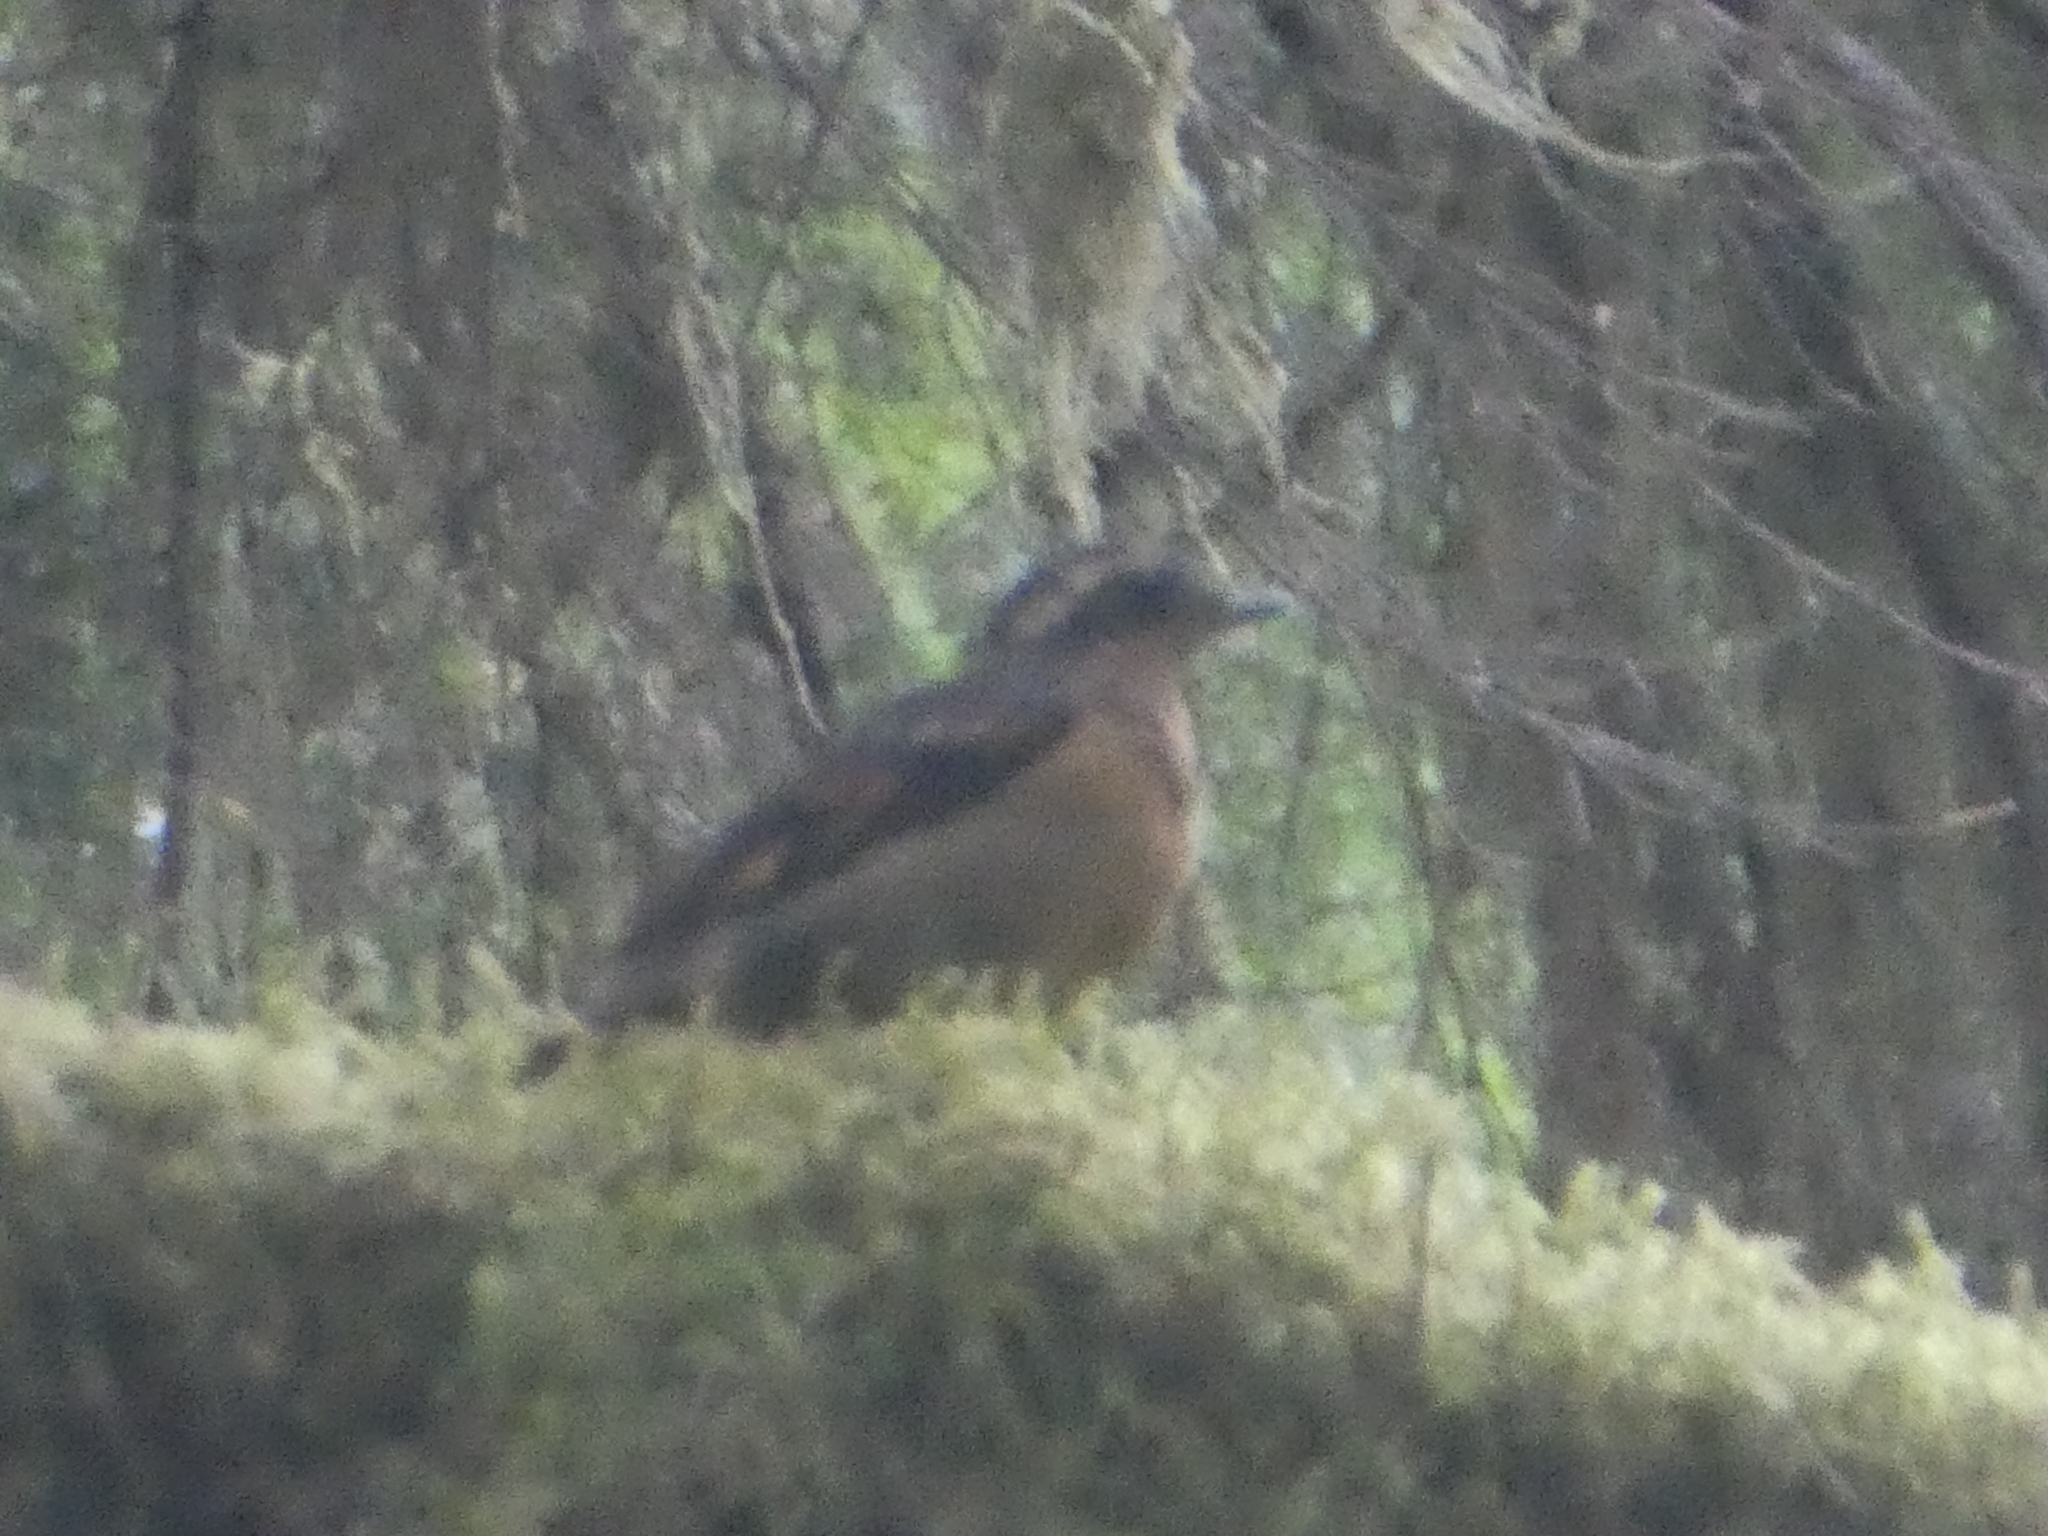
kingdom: Animalia
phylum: Chordata
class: Aves
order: Passeriformes
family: Turdidae
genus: Ixoreus
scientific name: Ixoreus naevius
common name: Varied thrush
